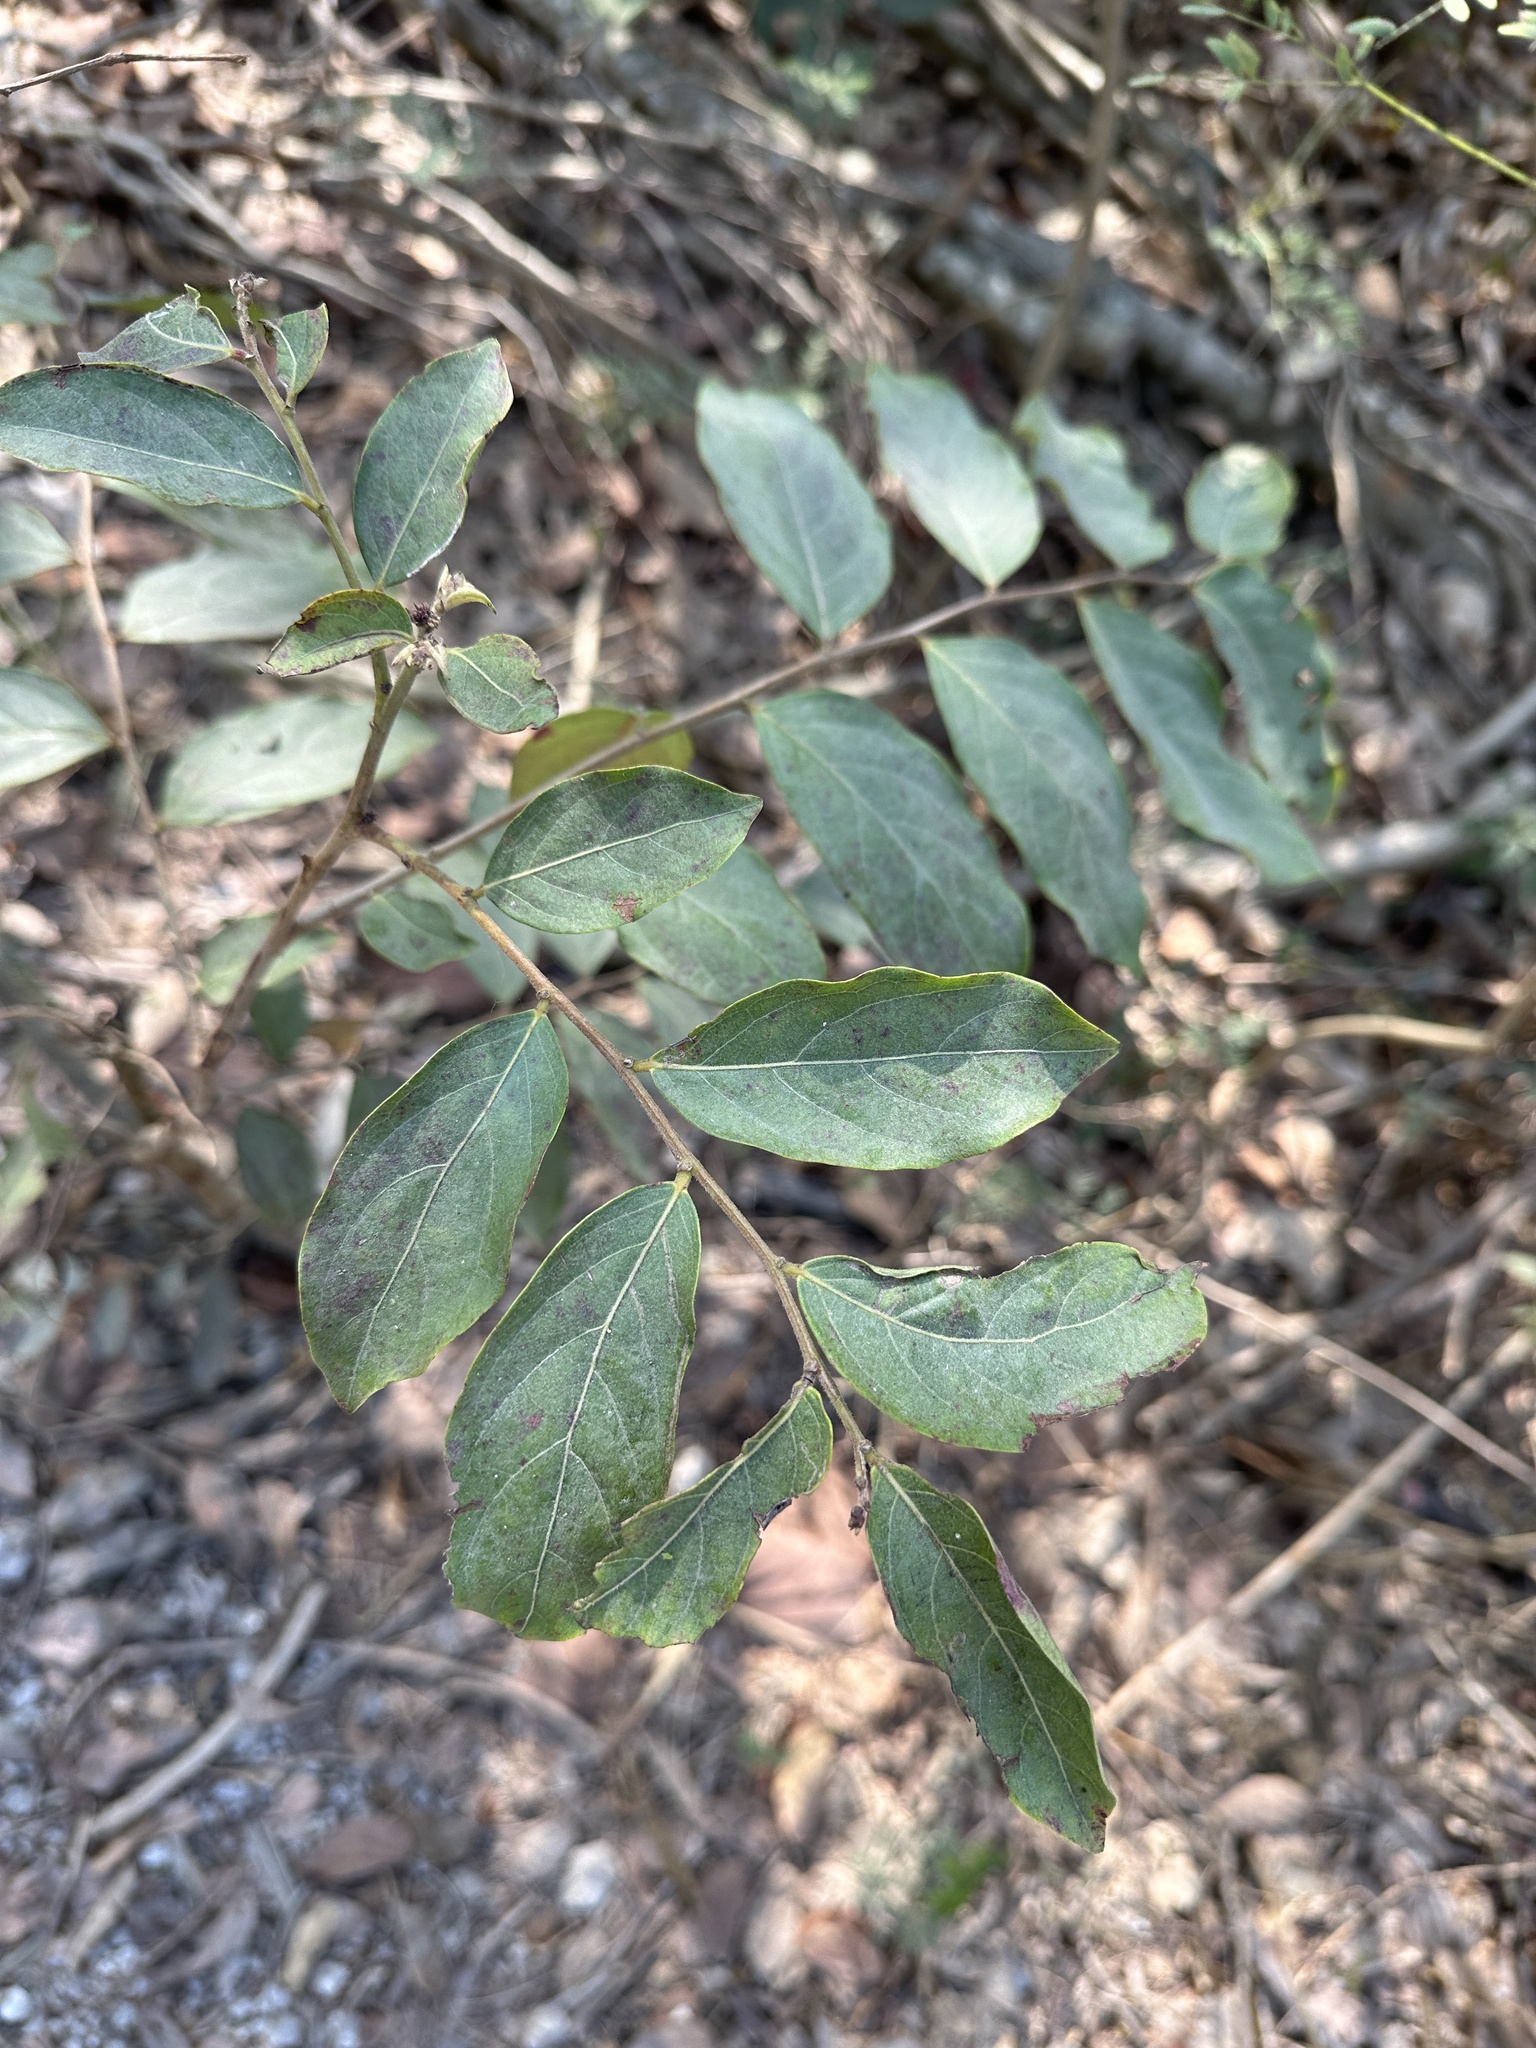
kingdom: Plantae
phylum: Tracheophyta
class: Magnoliopsida
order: Malpighiales
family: Phyllanthaceae
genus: Glochidion
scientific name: Glochidion philippicum
